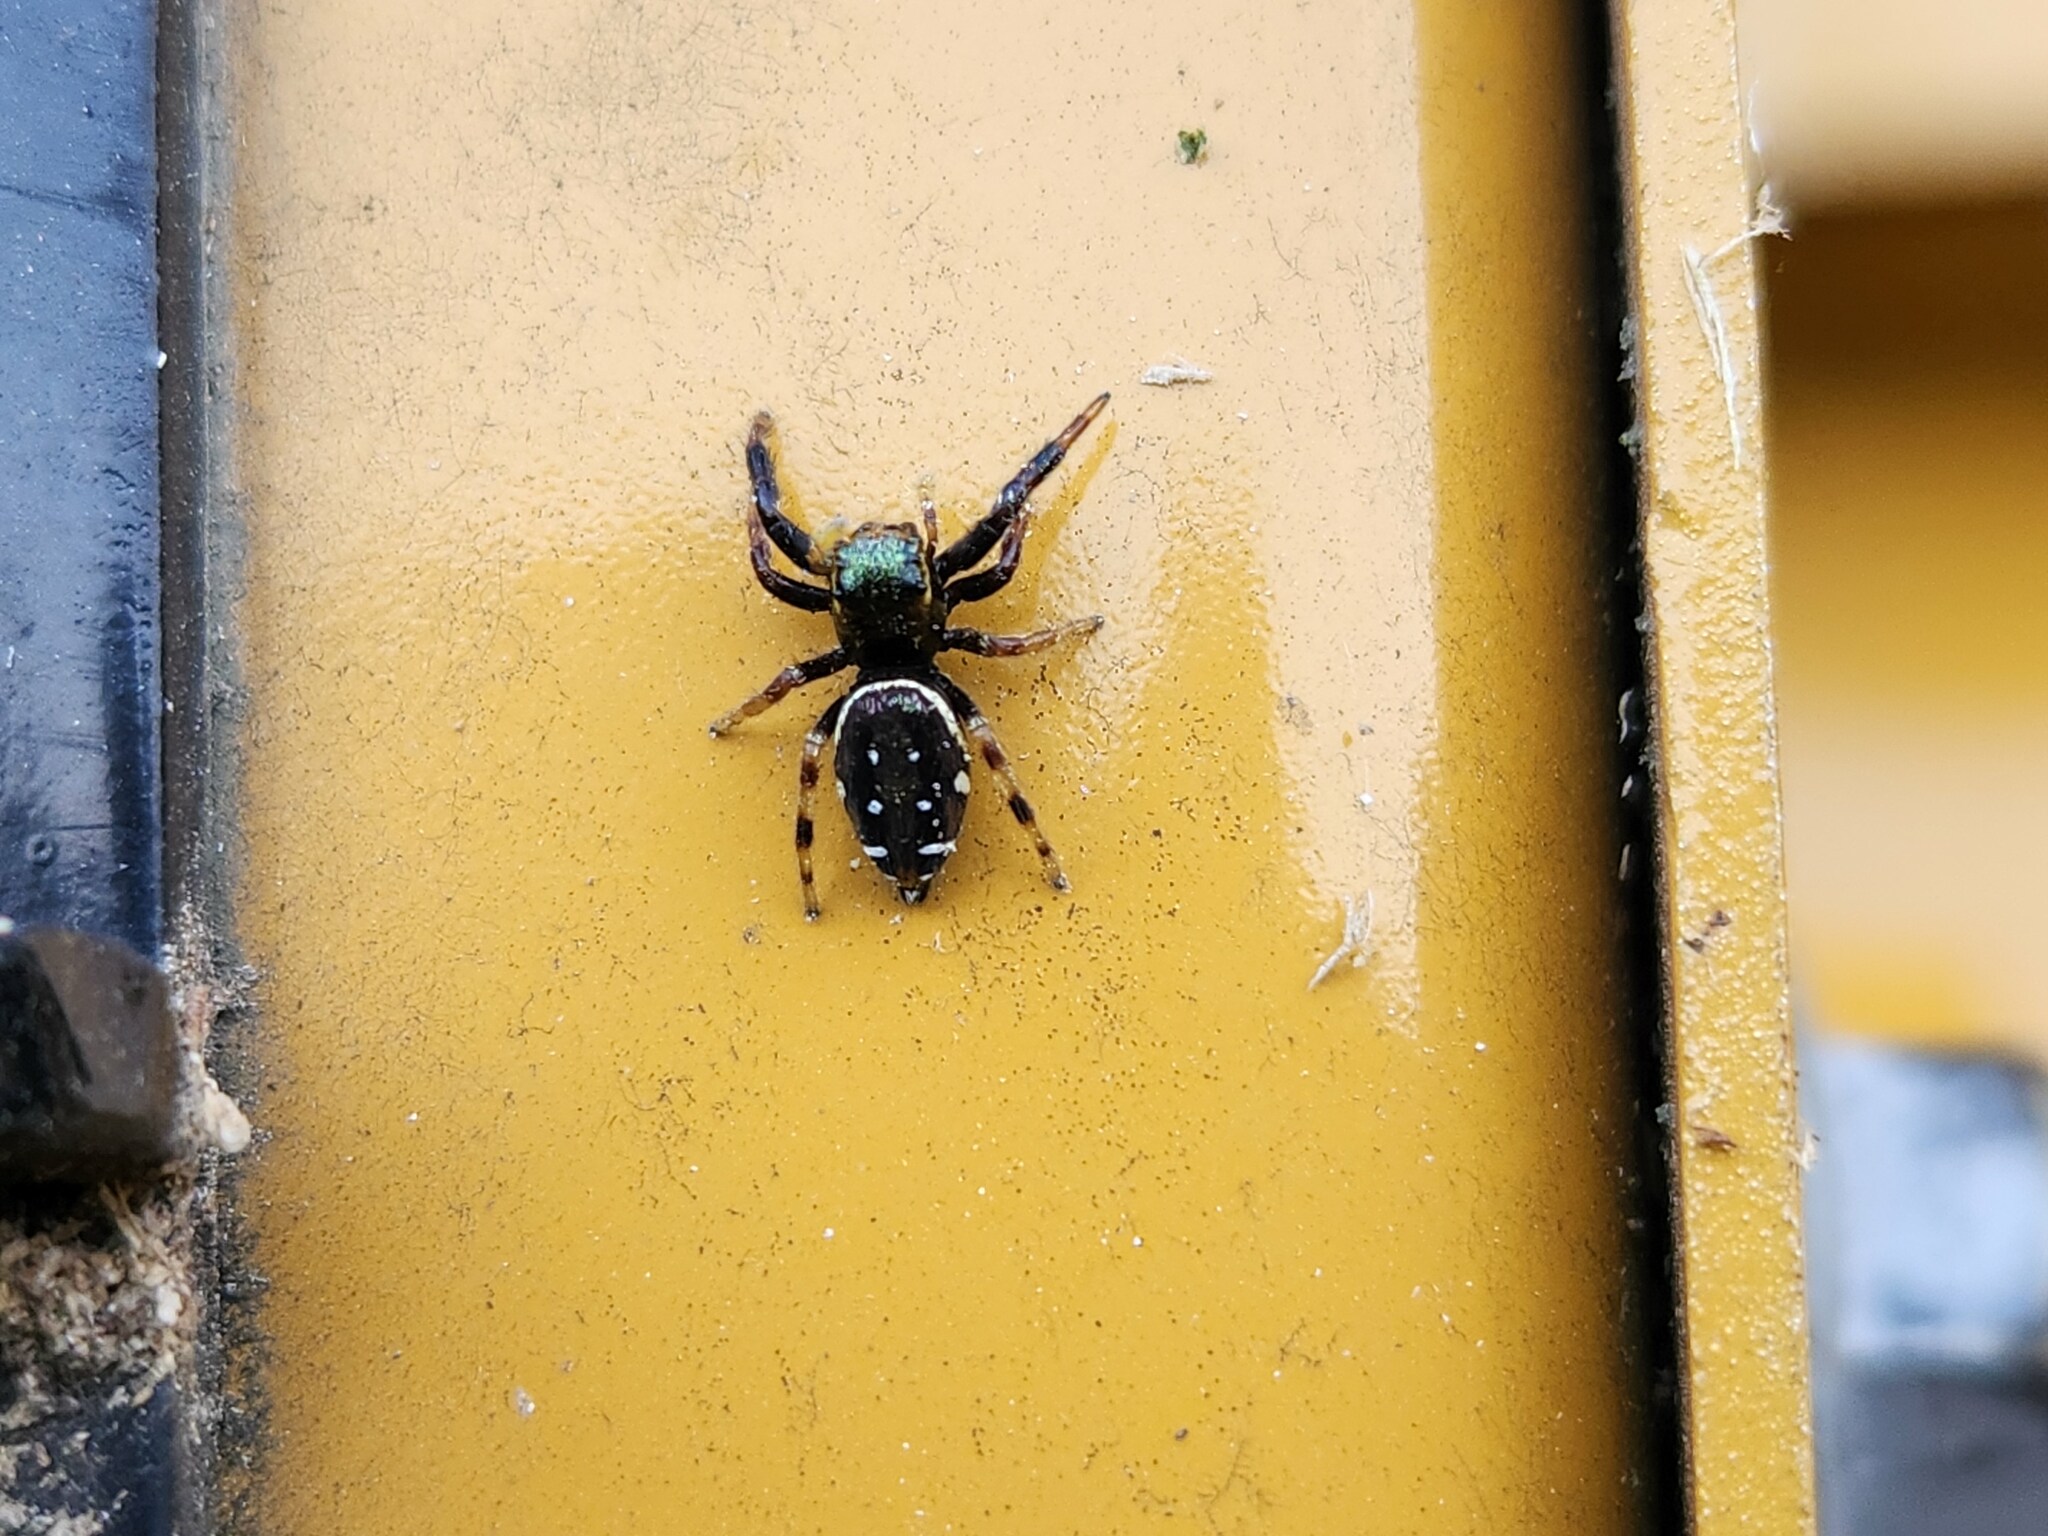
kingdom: Animalia
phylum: Arthropoda
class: Arachnida
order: Araneae
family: Salticidae
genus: Paraphidippus
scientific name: Paraphidippus aurantius
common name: Jumping spiders
